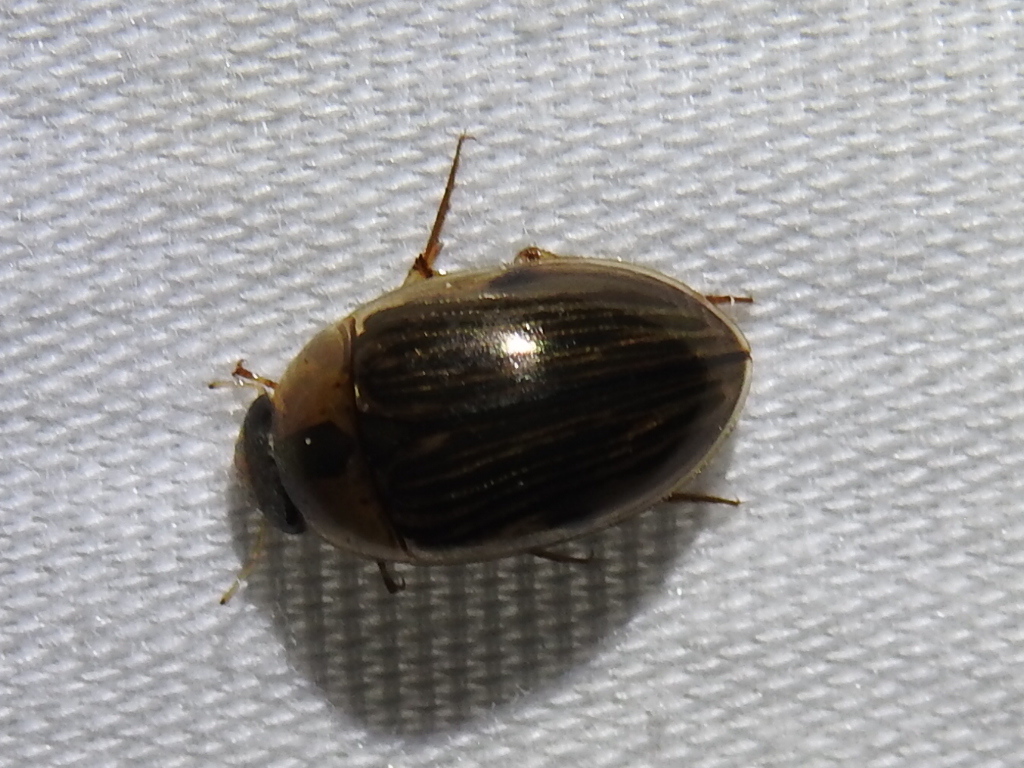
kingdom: Animalia
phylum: Arthropoda
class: Insecta
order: Coleoptera
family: Hydrophilidae
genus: Tropisternus
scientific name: Tropisternus collaris
